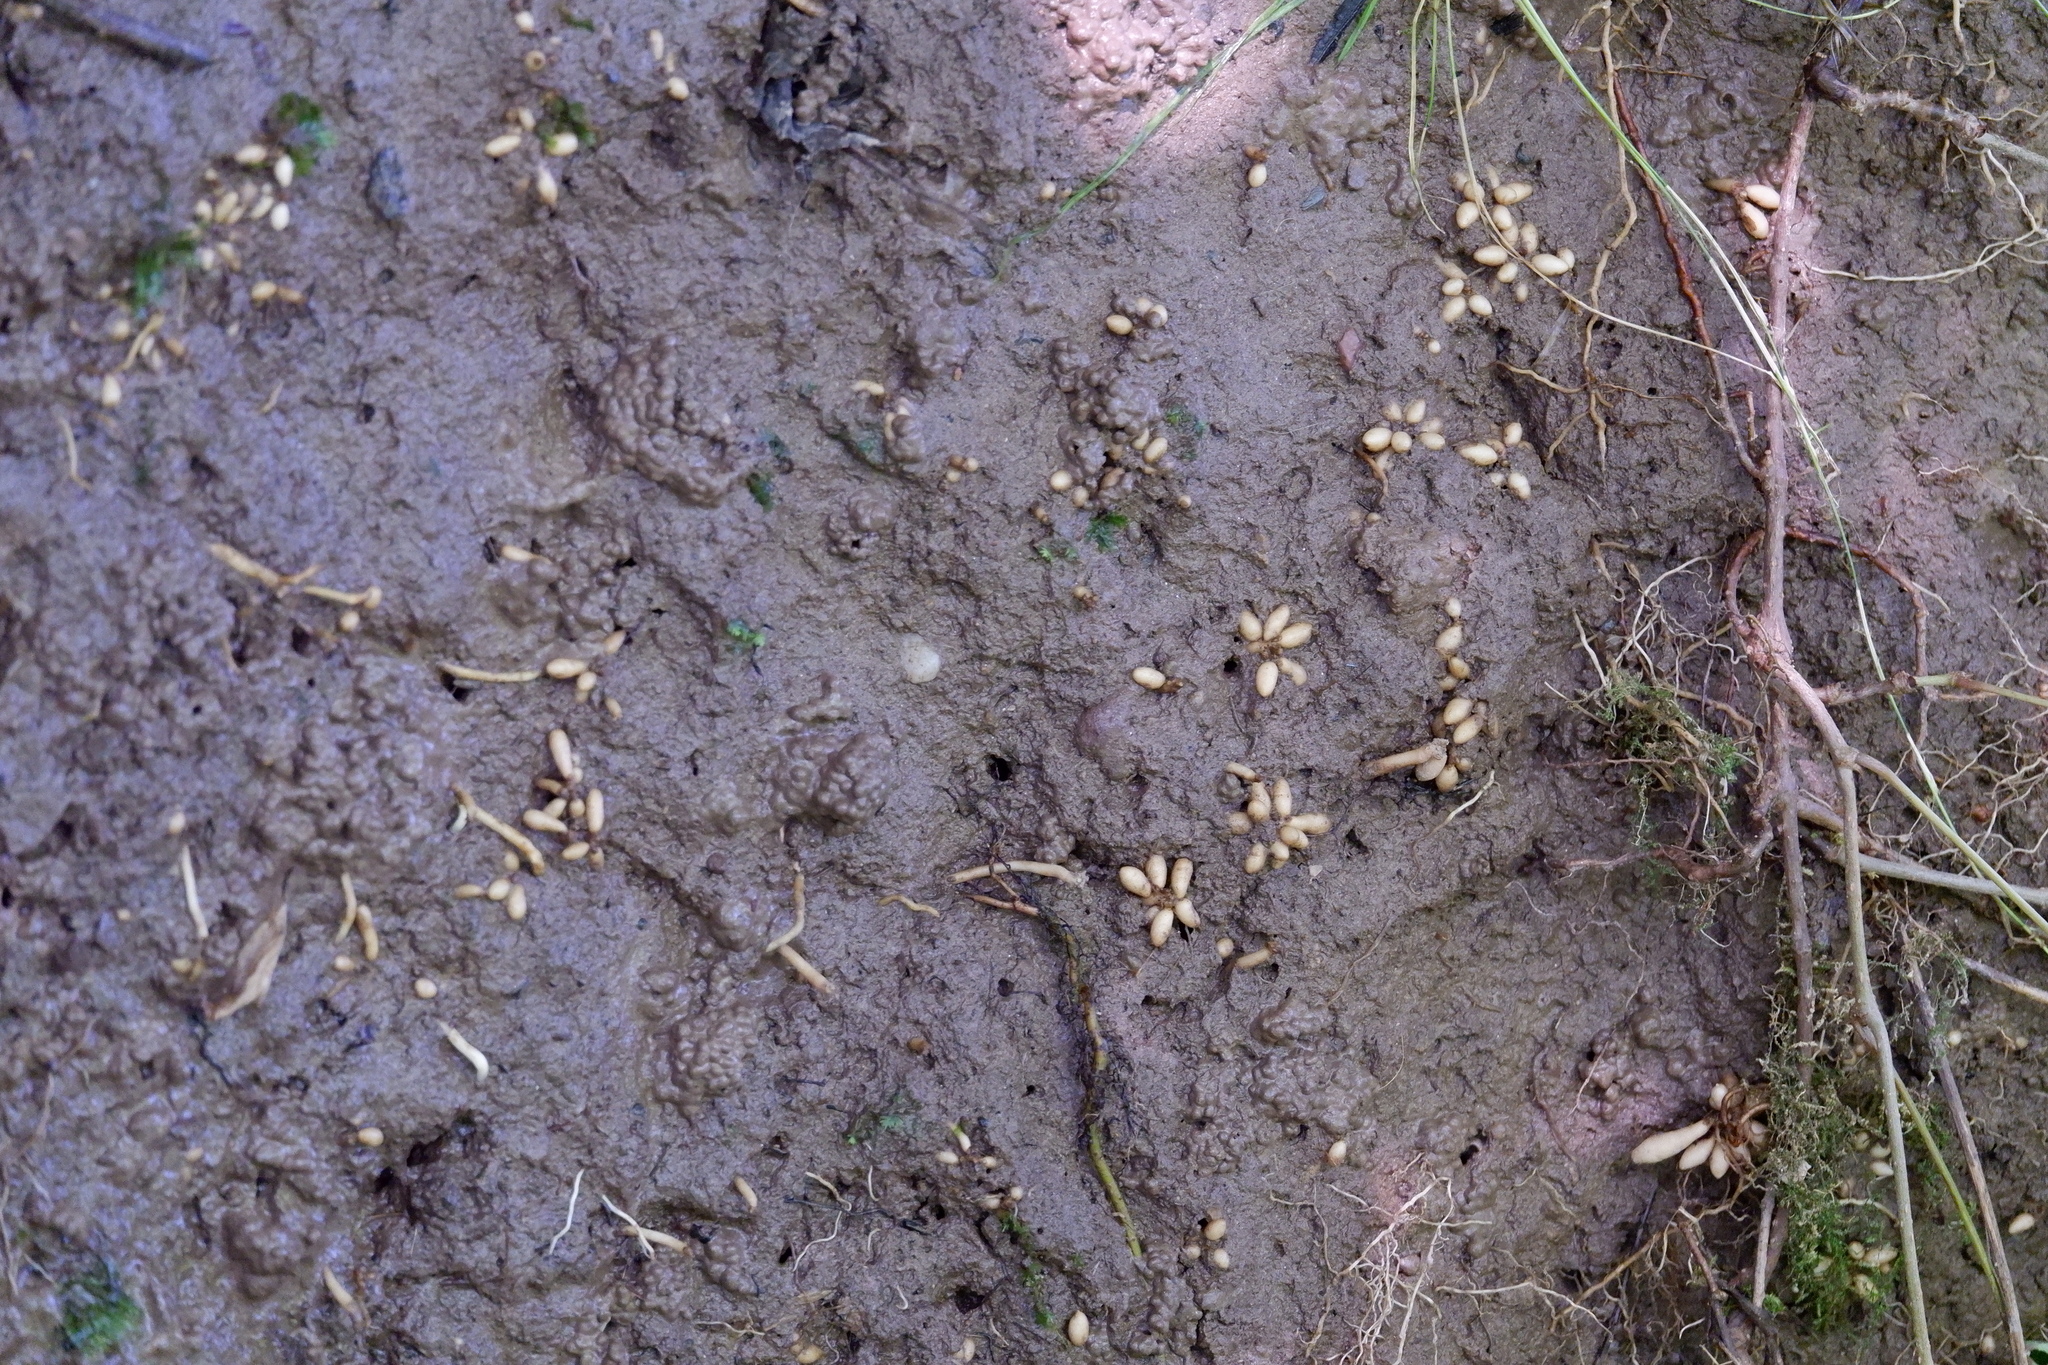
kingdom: Plantae
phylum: Tracheophyta
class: Magnoliopsida
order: Ranunculales
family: Ranunculaceae
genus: Ficaria
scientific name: Ficaria verna
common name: Lesser celandine
